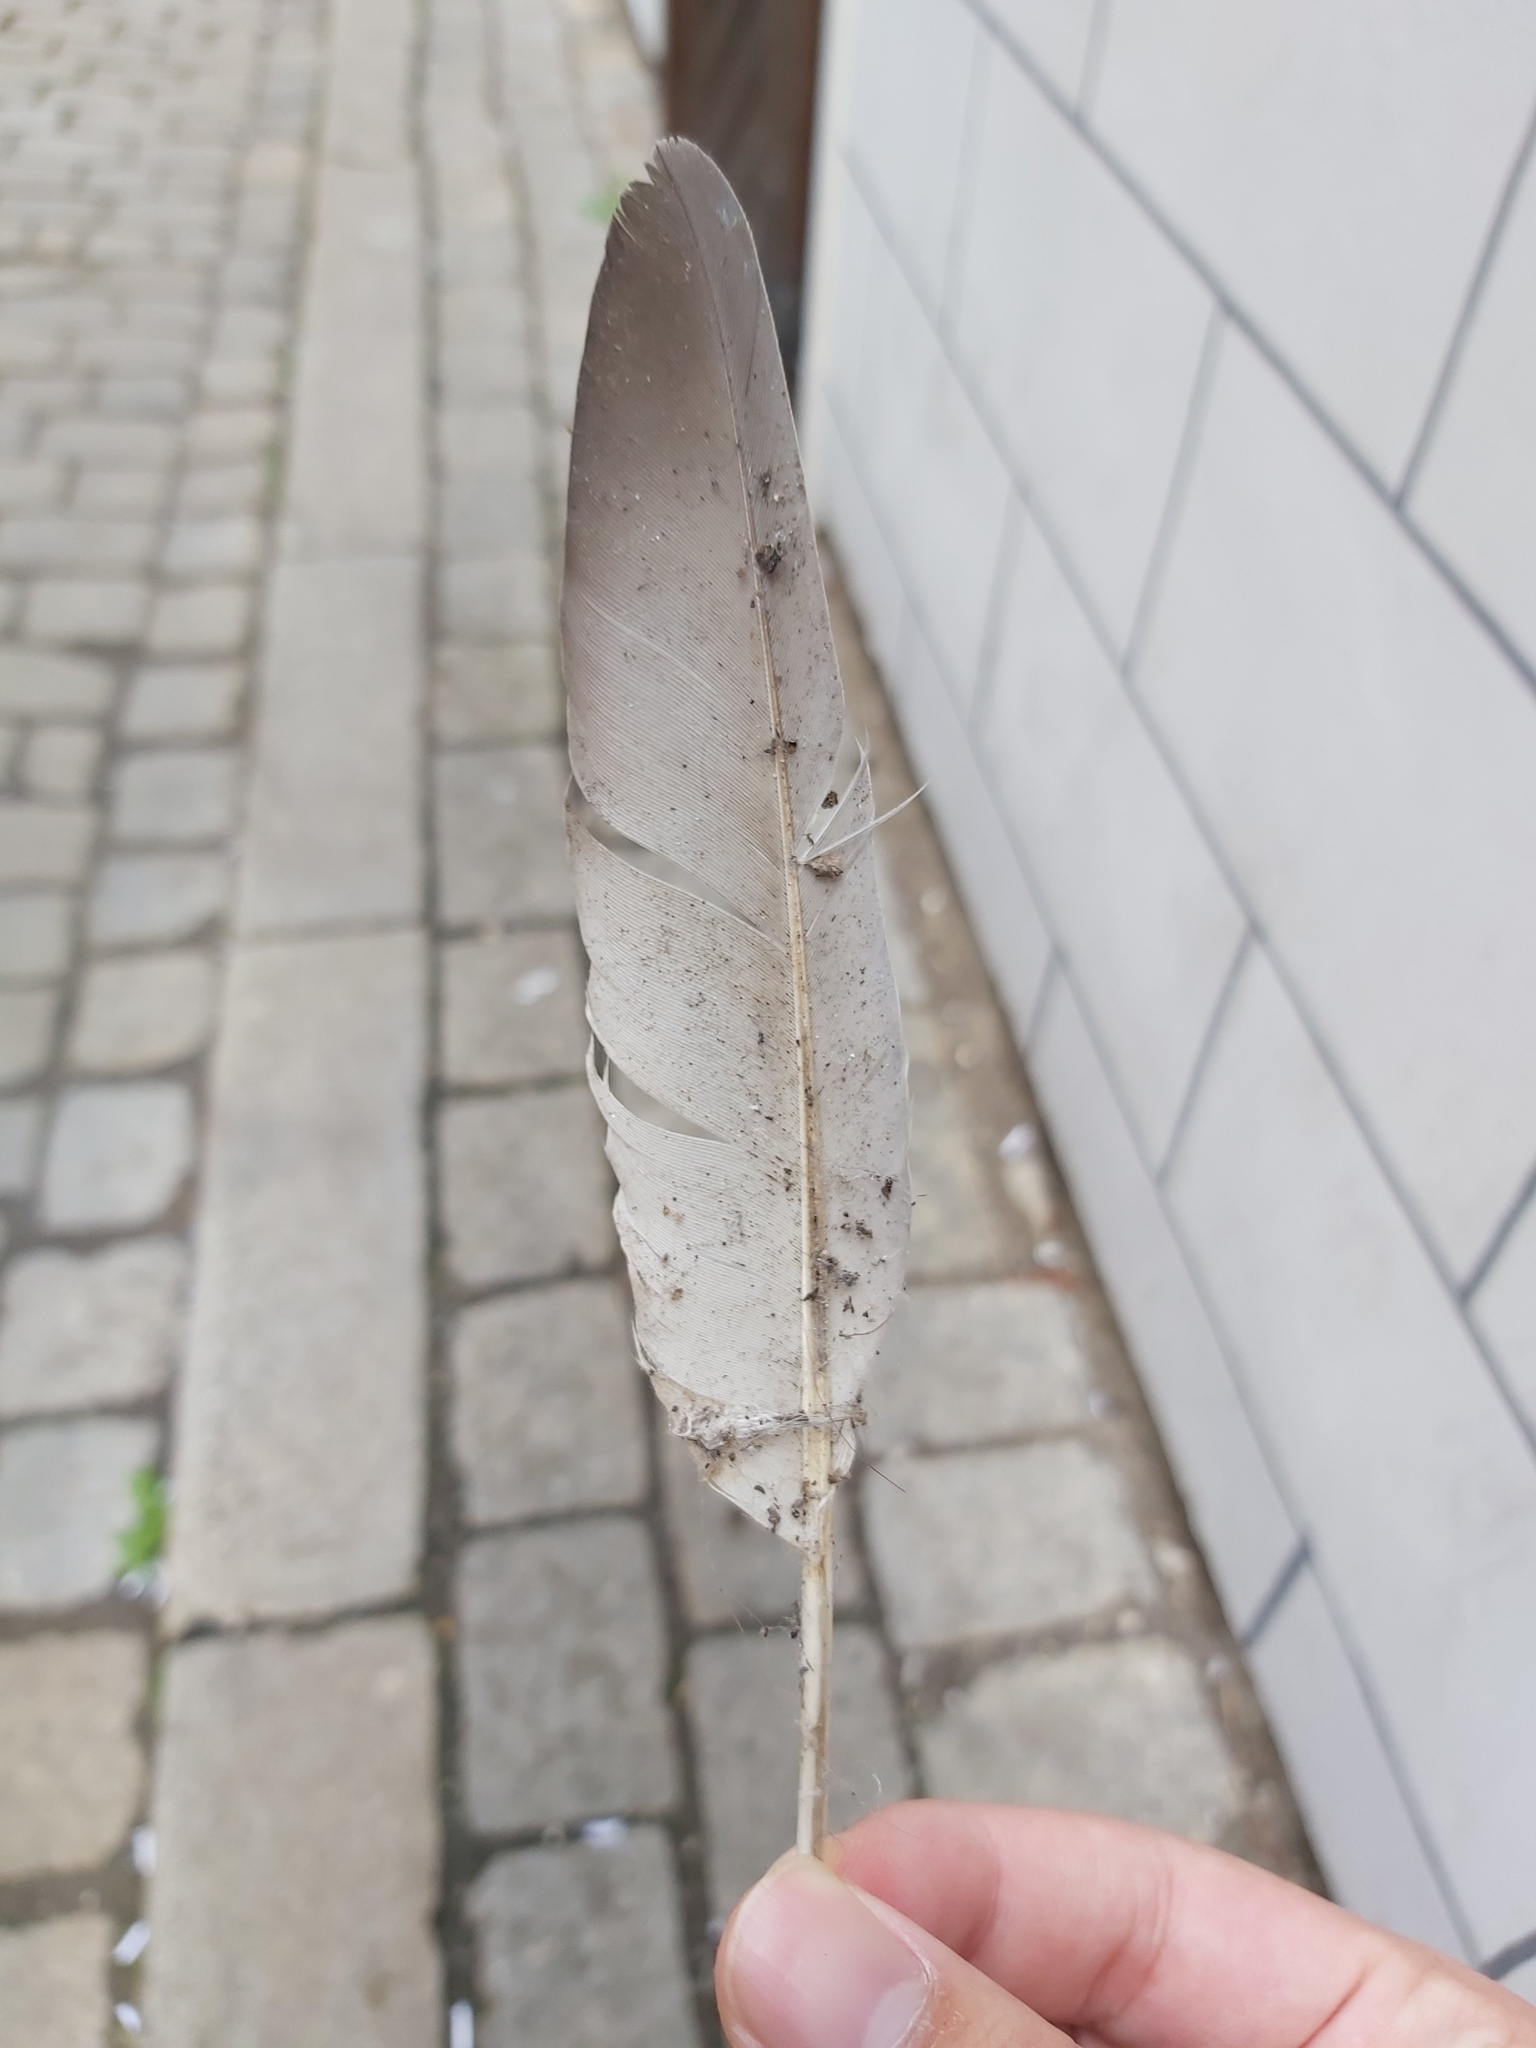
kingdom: Animalia
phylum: Chordata
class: Aves
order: Columbiformes
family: Columbidae
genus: Columba
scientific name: Columba livia
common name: Rock pigeon
